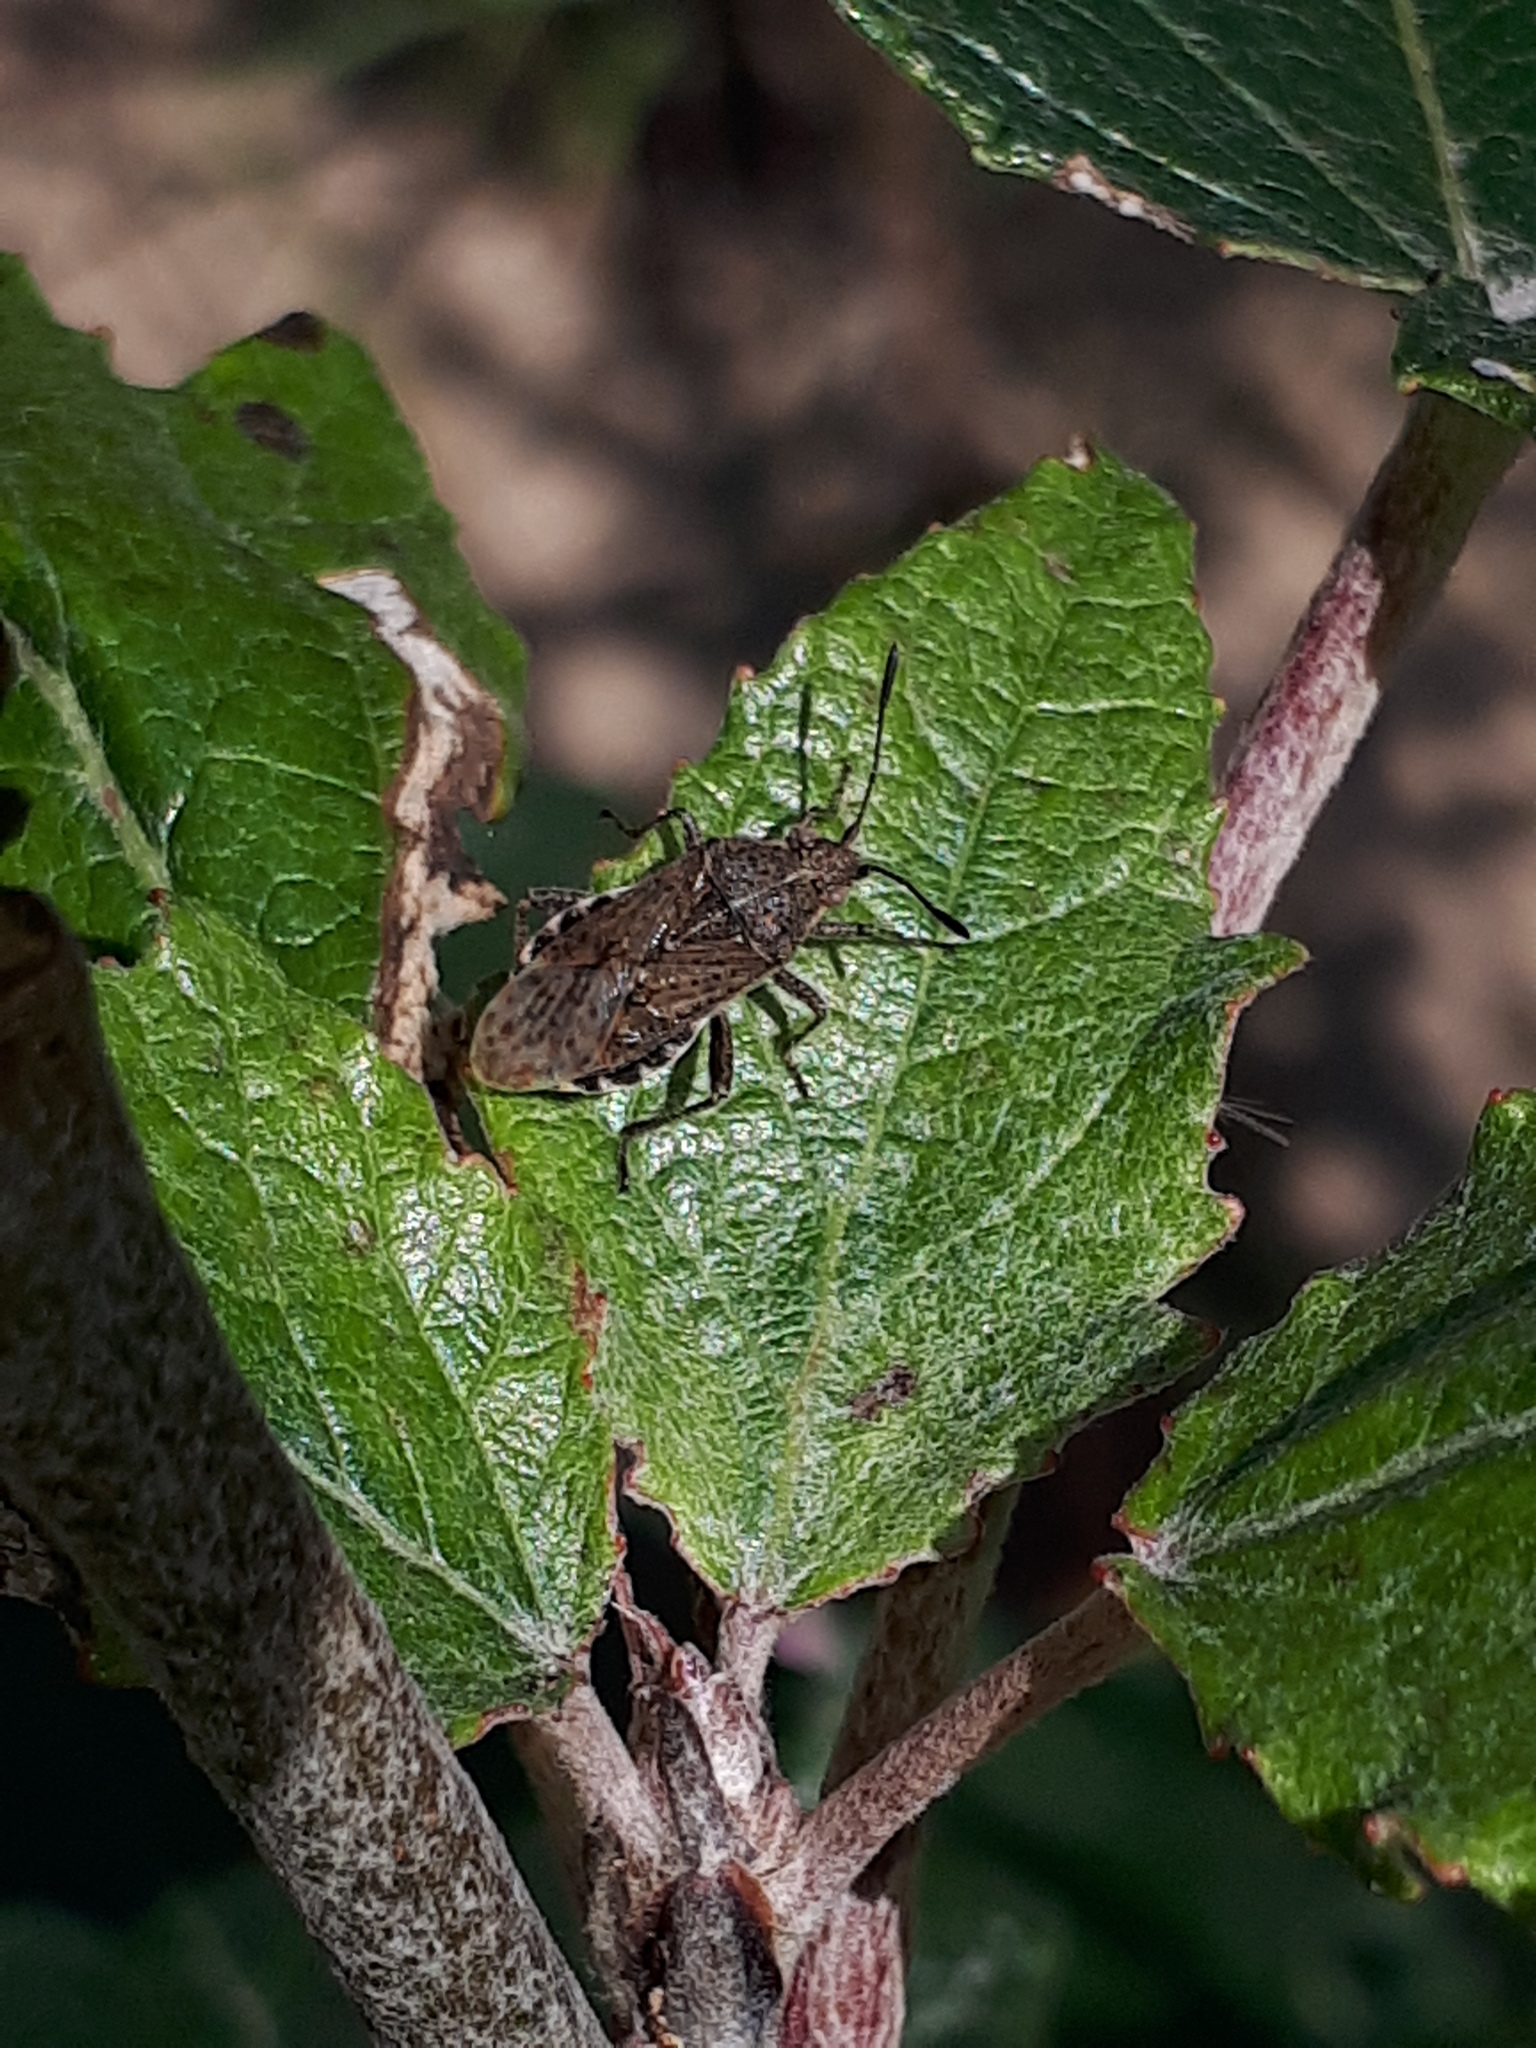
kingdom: Animalia
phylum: Arthropoda
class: Insecta
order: Hemiptera
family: Rhopalidae
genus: Stictopleurus
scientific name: Stictopleurus punctatonervosus
